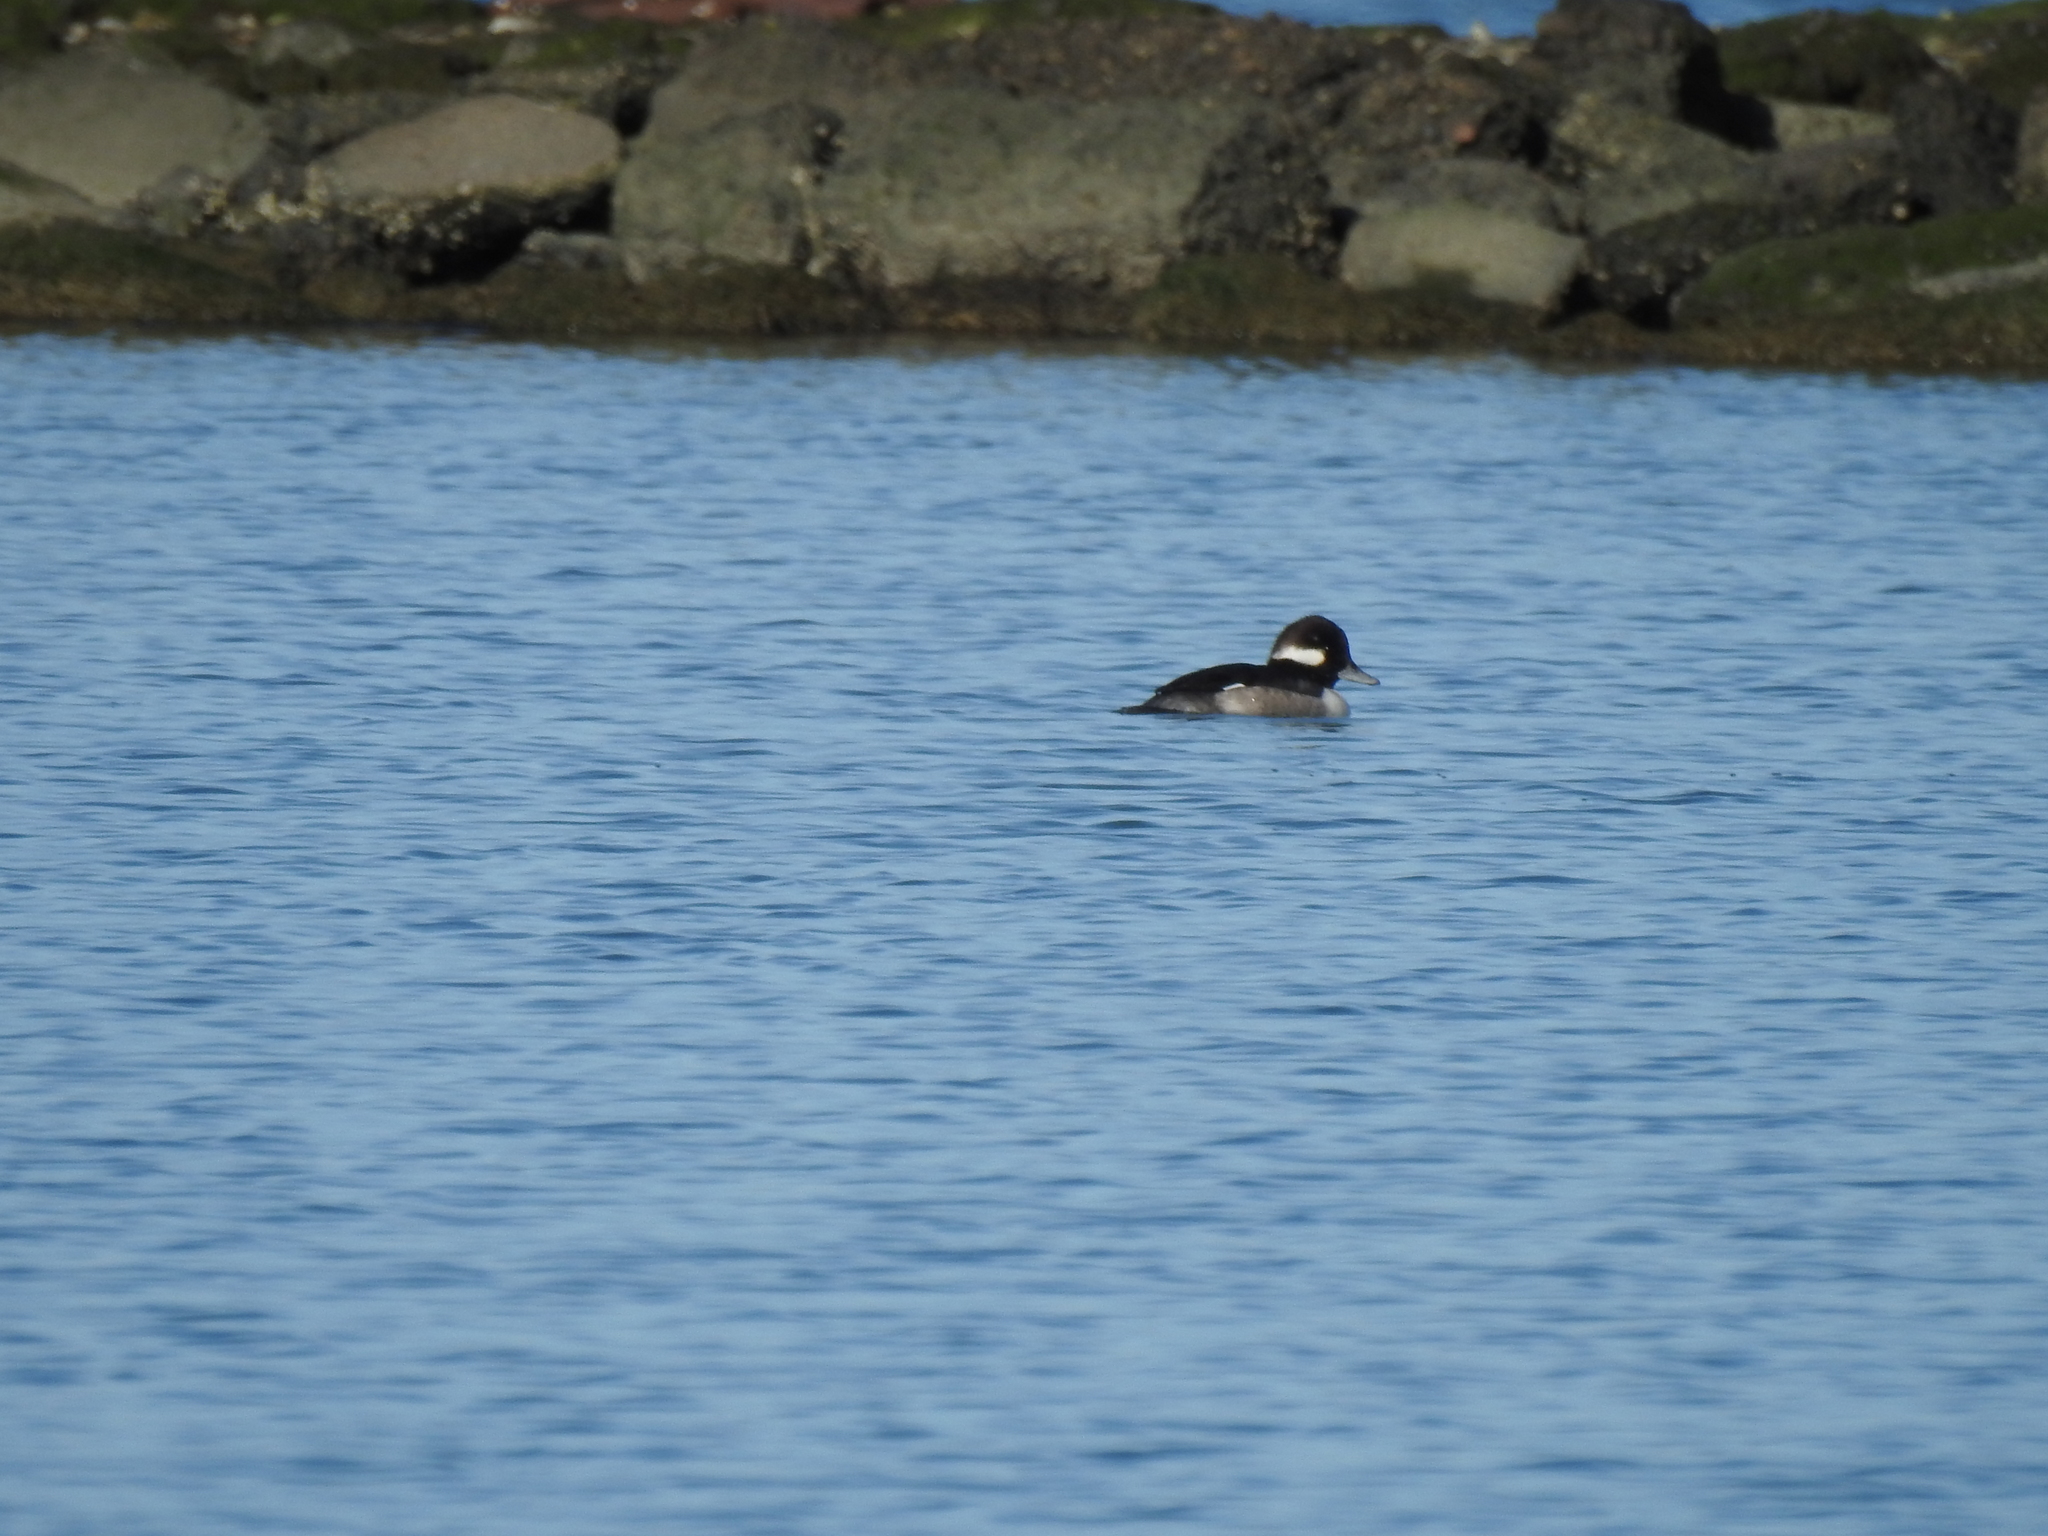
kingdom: Animalia
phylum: Chordata
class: Aves
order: Anseriformes
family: Anatidae
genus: Bucephala
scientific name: Bucephala albeola
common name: Bufflehead
